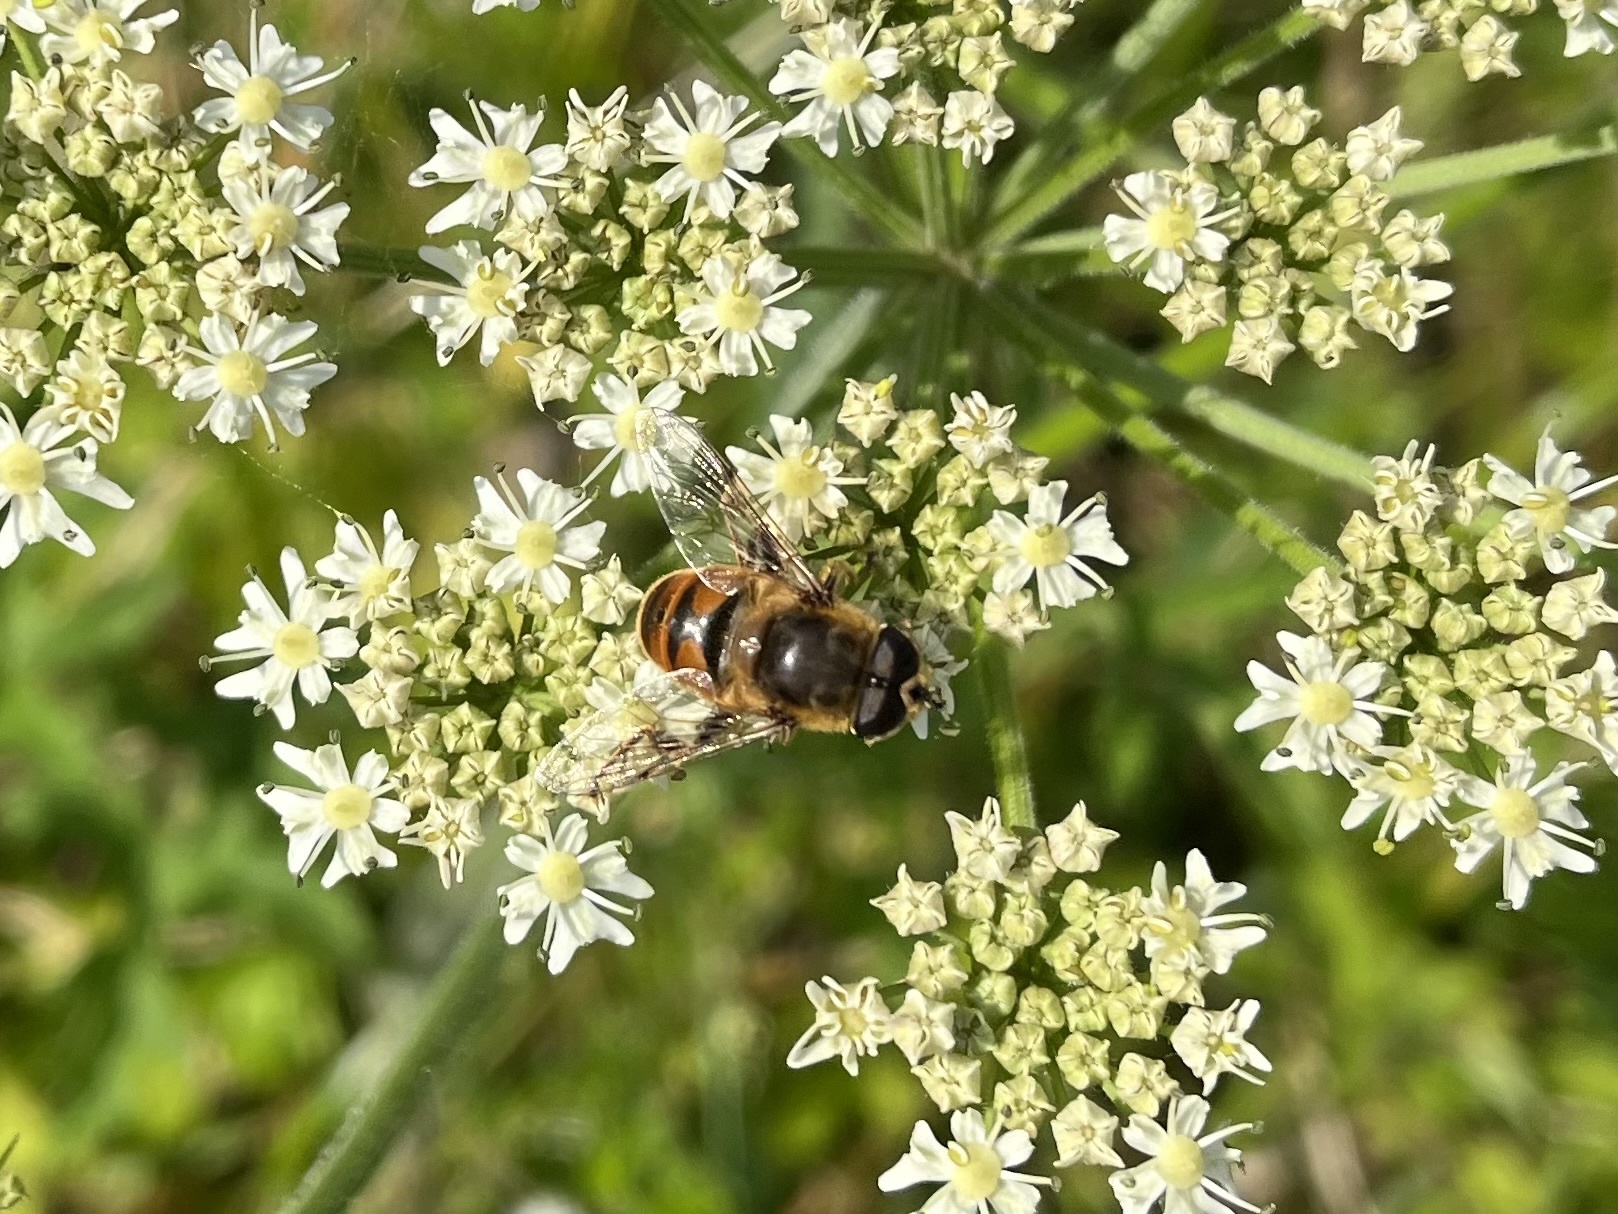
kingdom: Animalia
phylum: Arthropoda
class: Insecta
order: Diptera
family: Syrphidae
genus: Eristalis
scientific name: Eristalis tenax
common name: Drone fly
